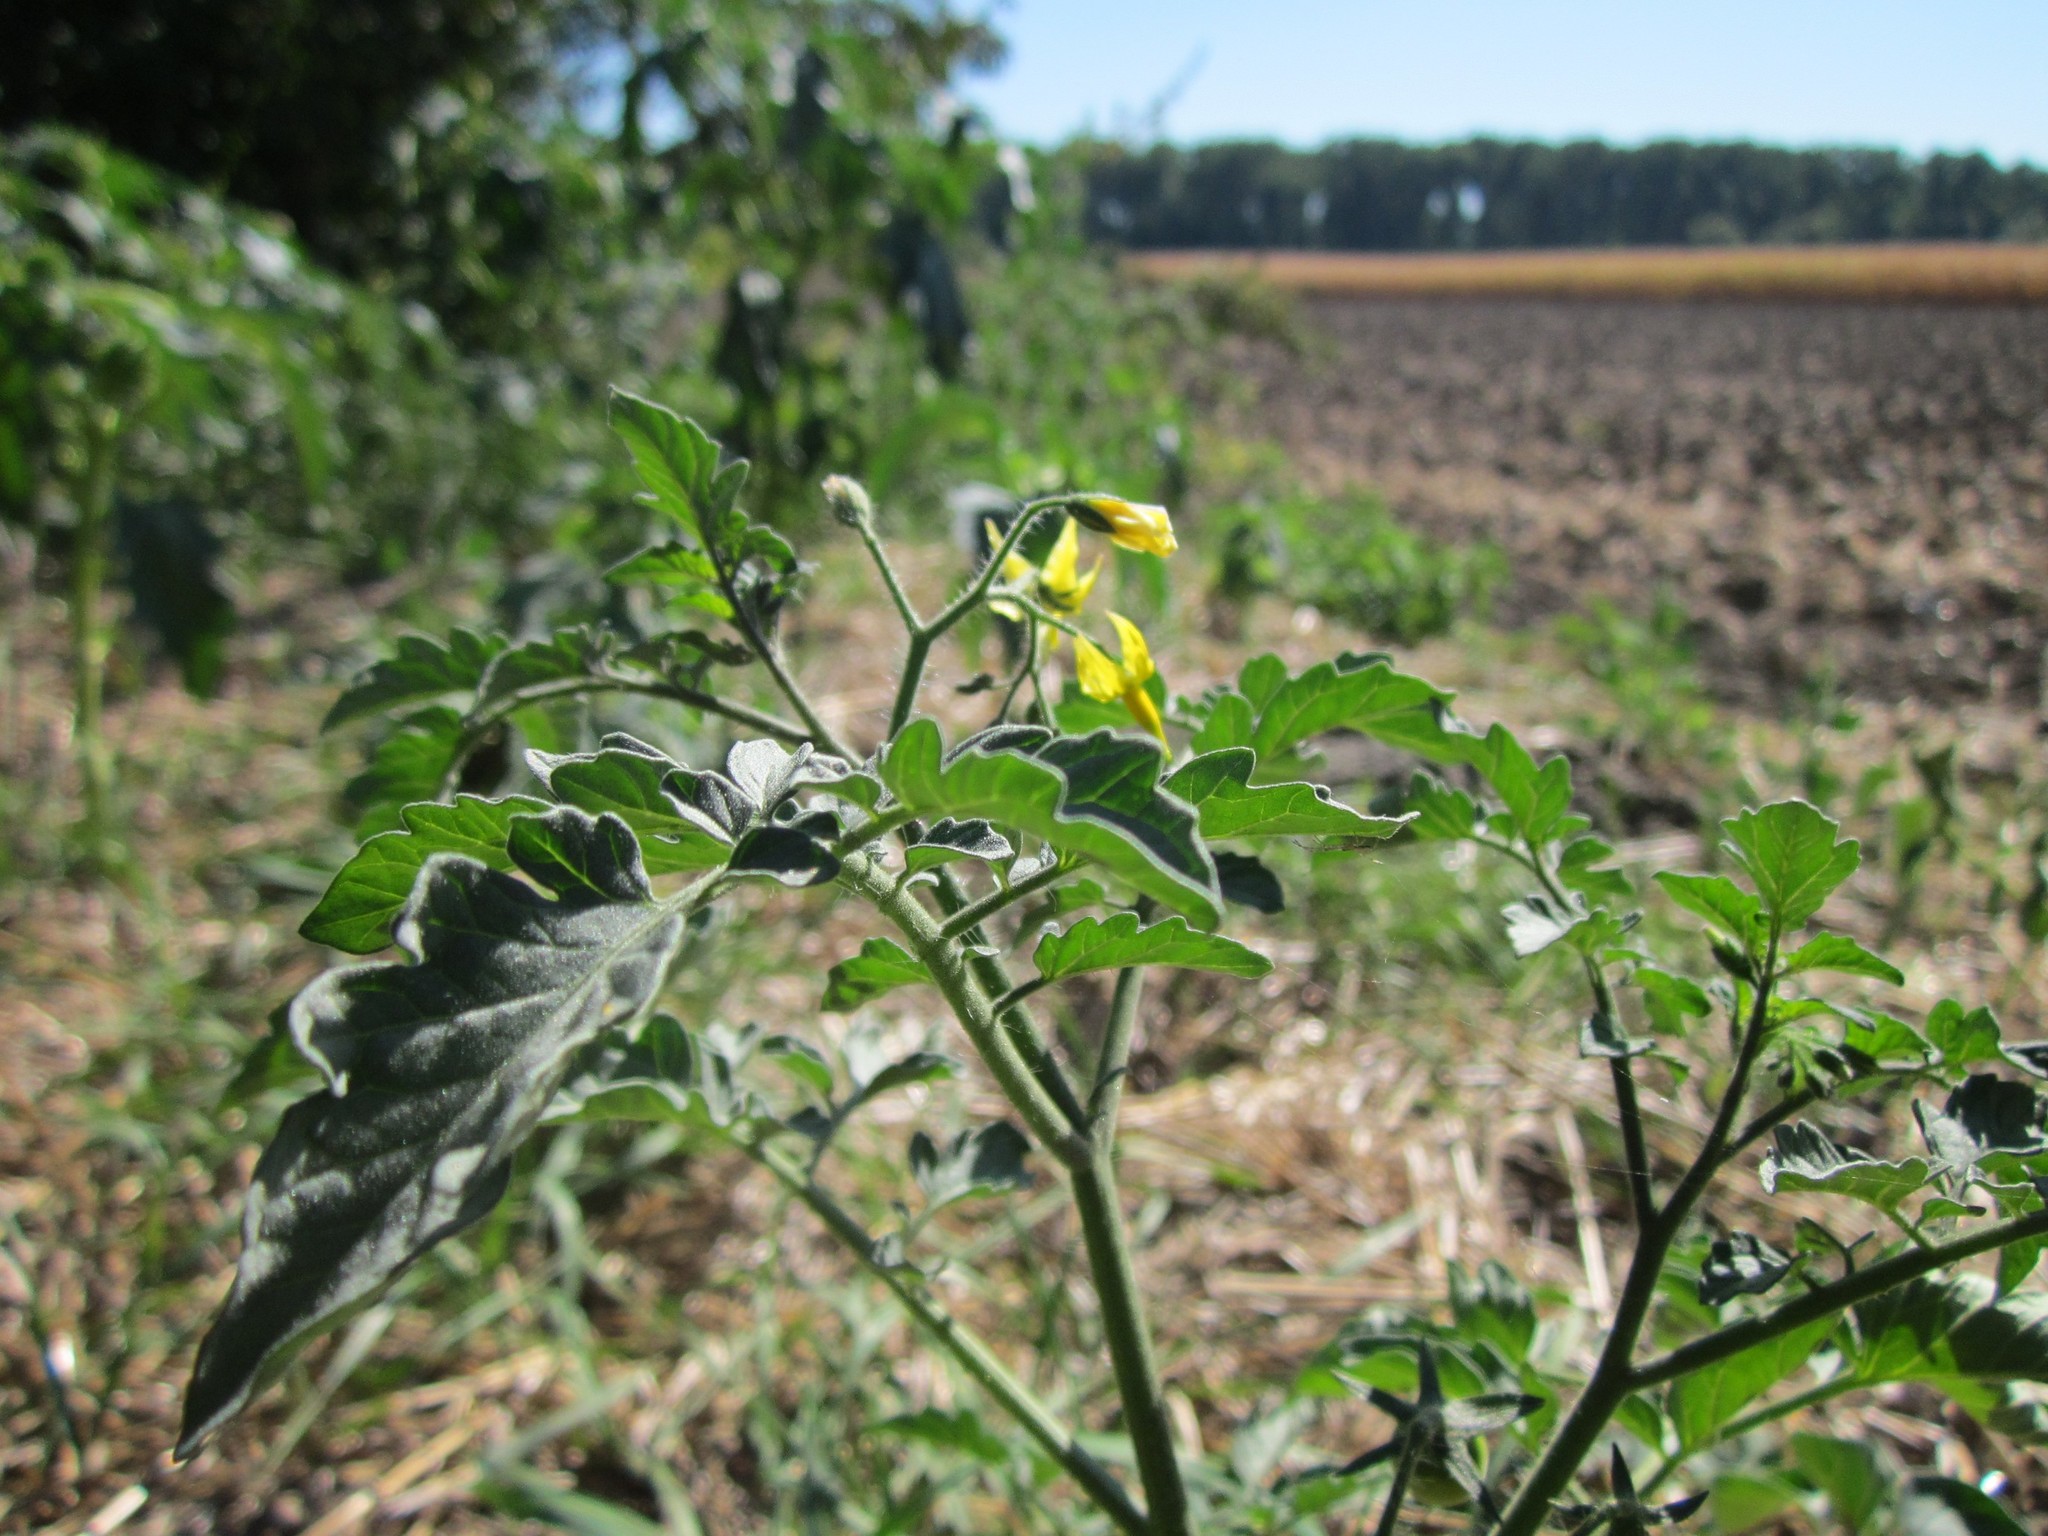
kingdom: Plantae
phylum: Tracheophyta
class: Magnoliopsida
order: Solanales
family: Solanaceae
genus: Solanum
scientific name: Solanum lycopersicum
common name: Garden tomato
